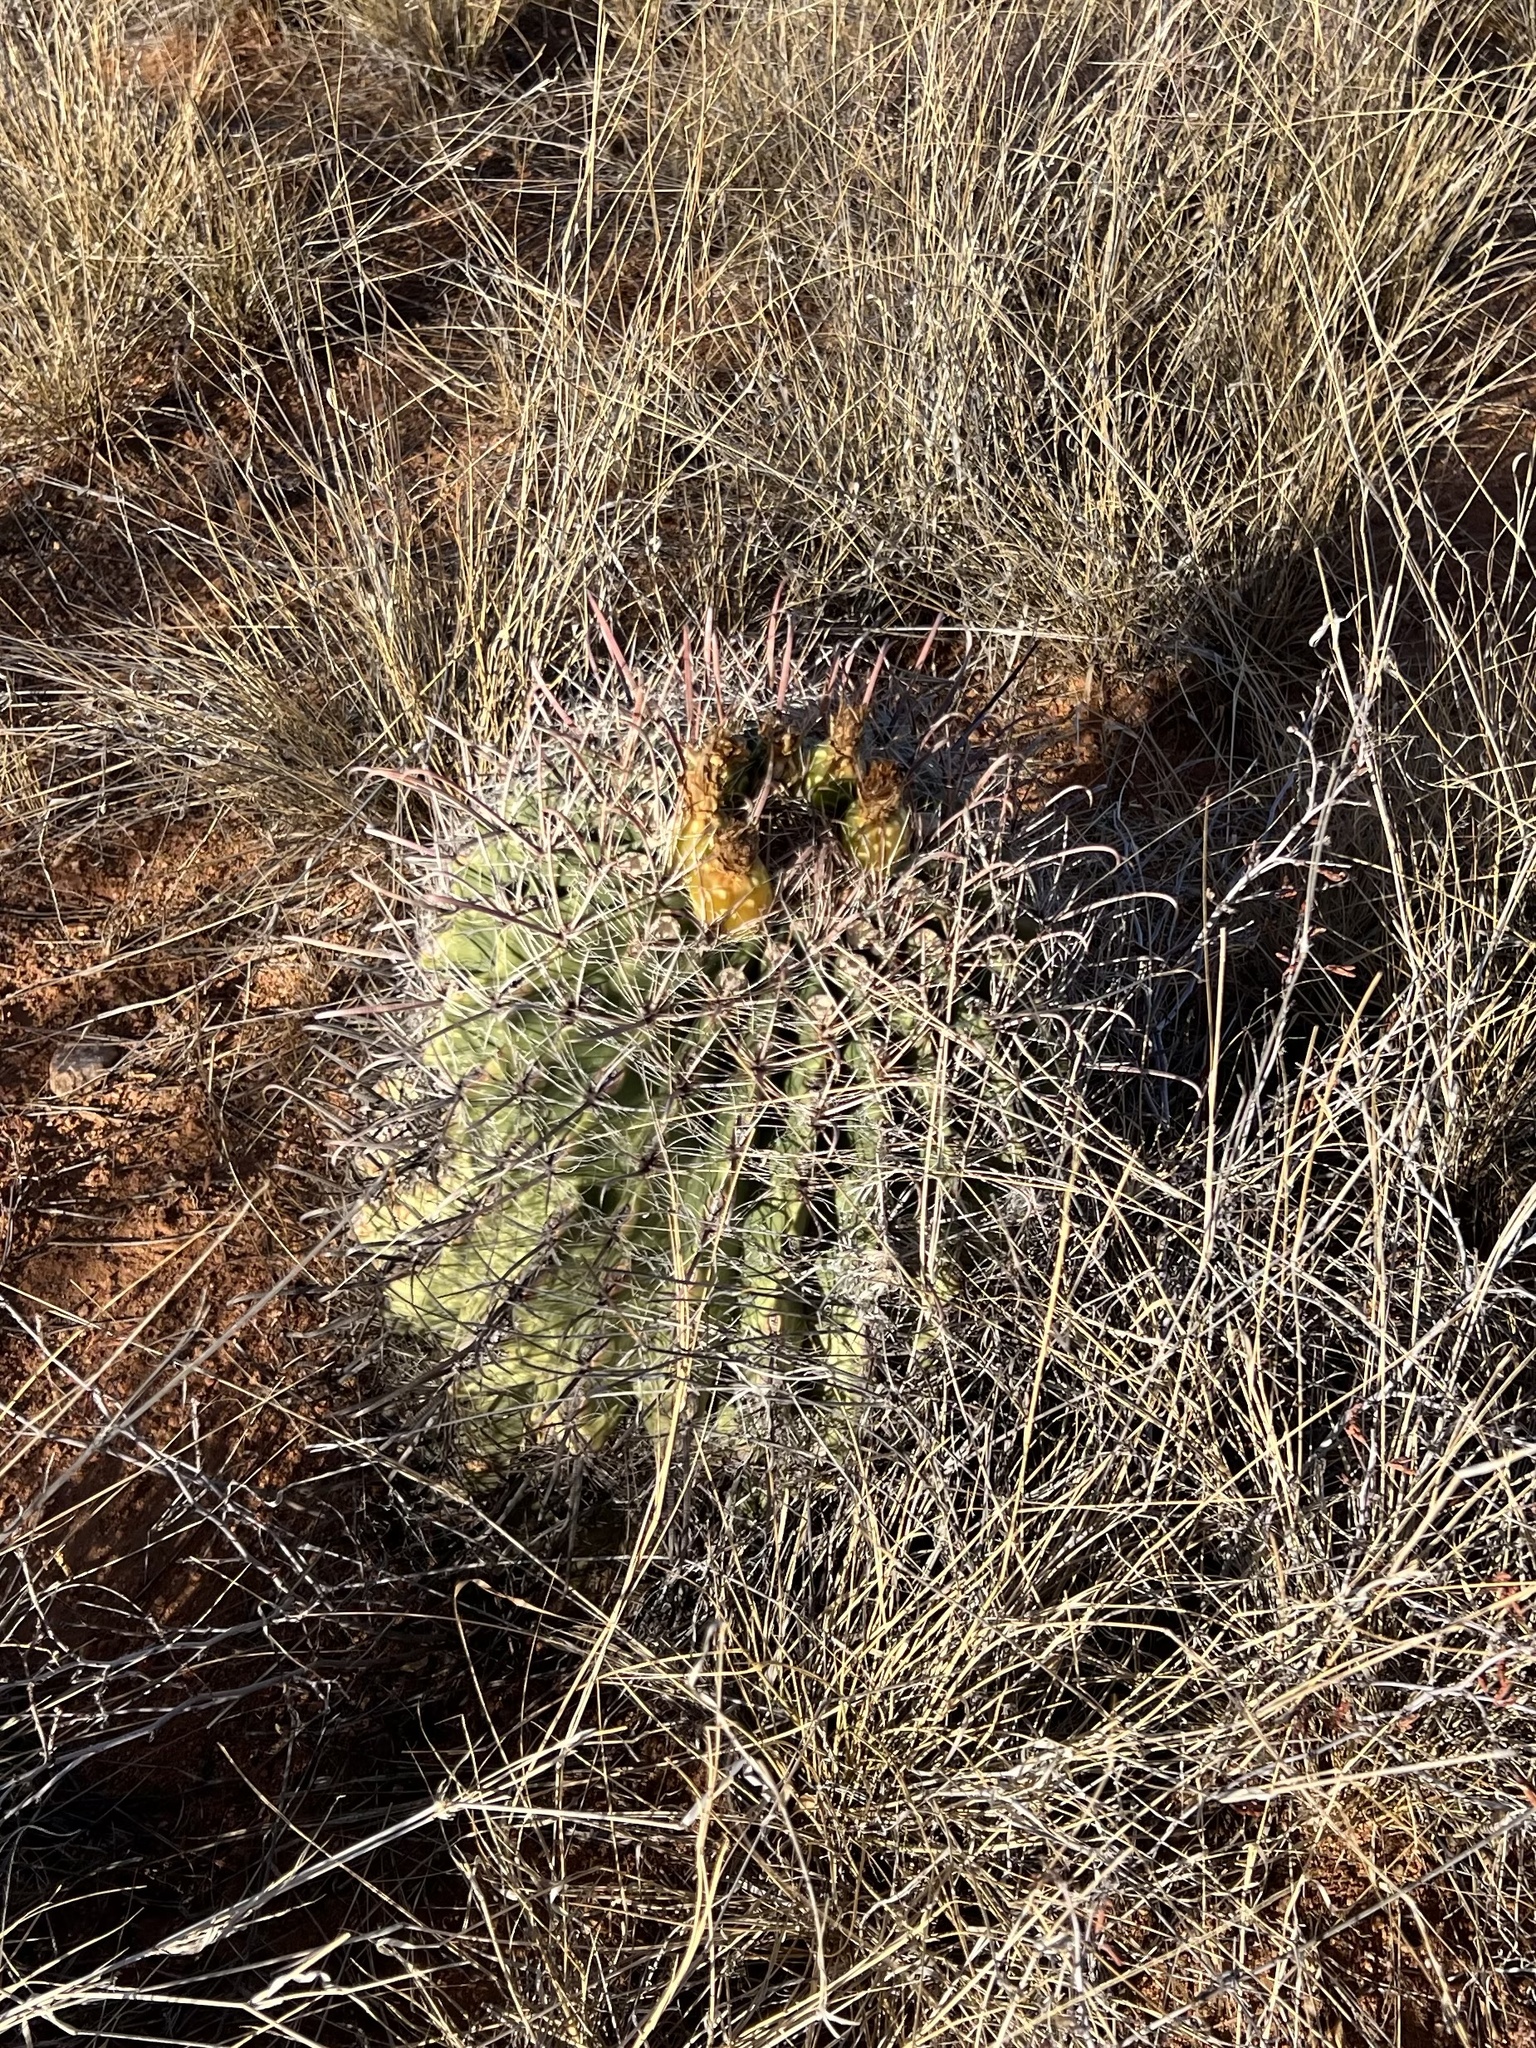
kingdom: Plantae
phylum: Tracheophyta
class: Magnoliopsida
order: Caryophyllales
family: Cactaceae
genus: Ferocactus
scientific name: Ferocactus wislizeni
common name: Candy barrel cactus
